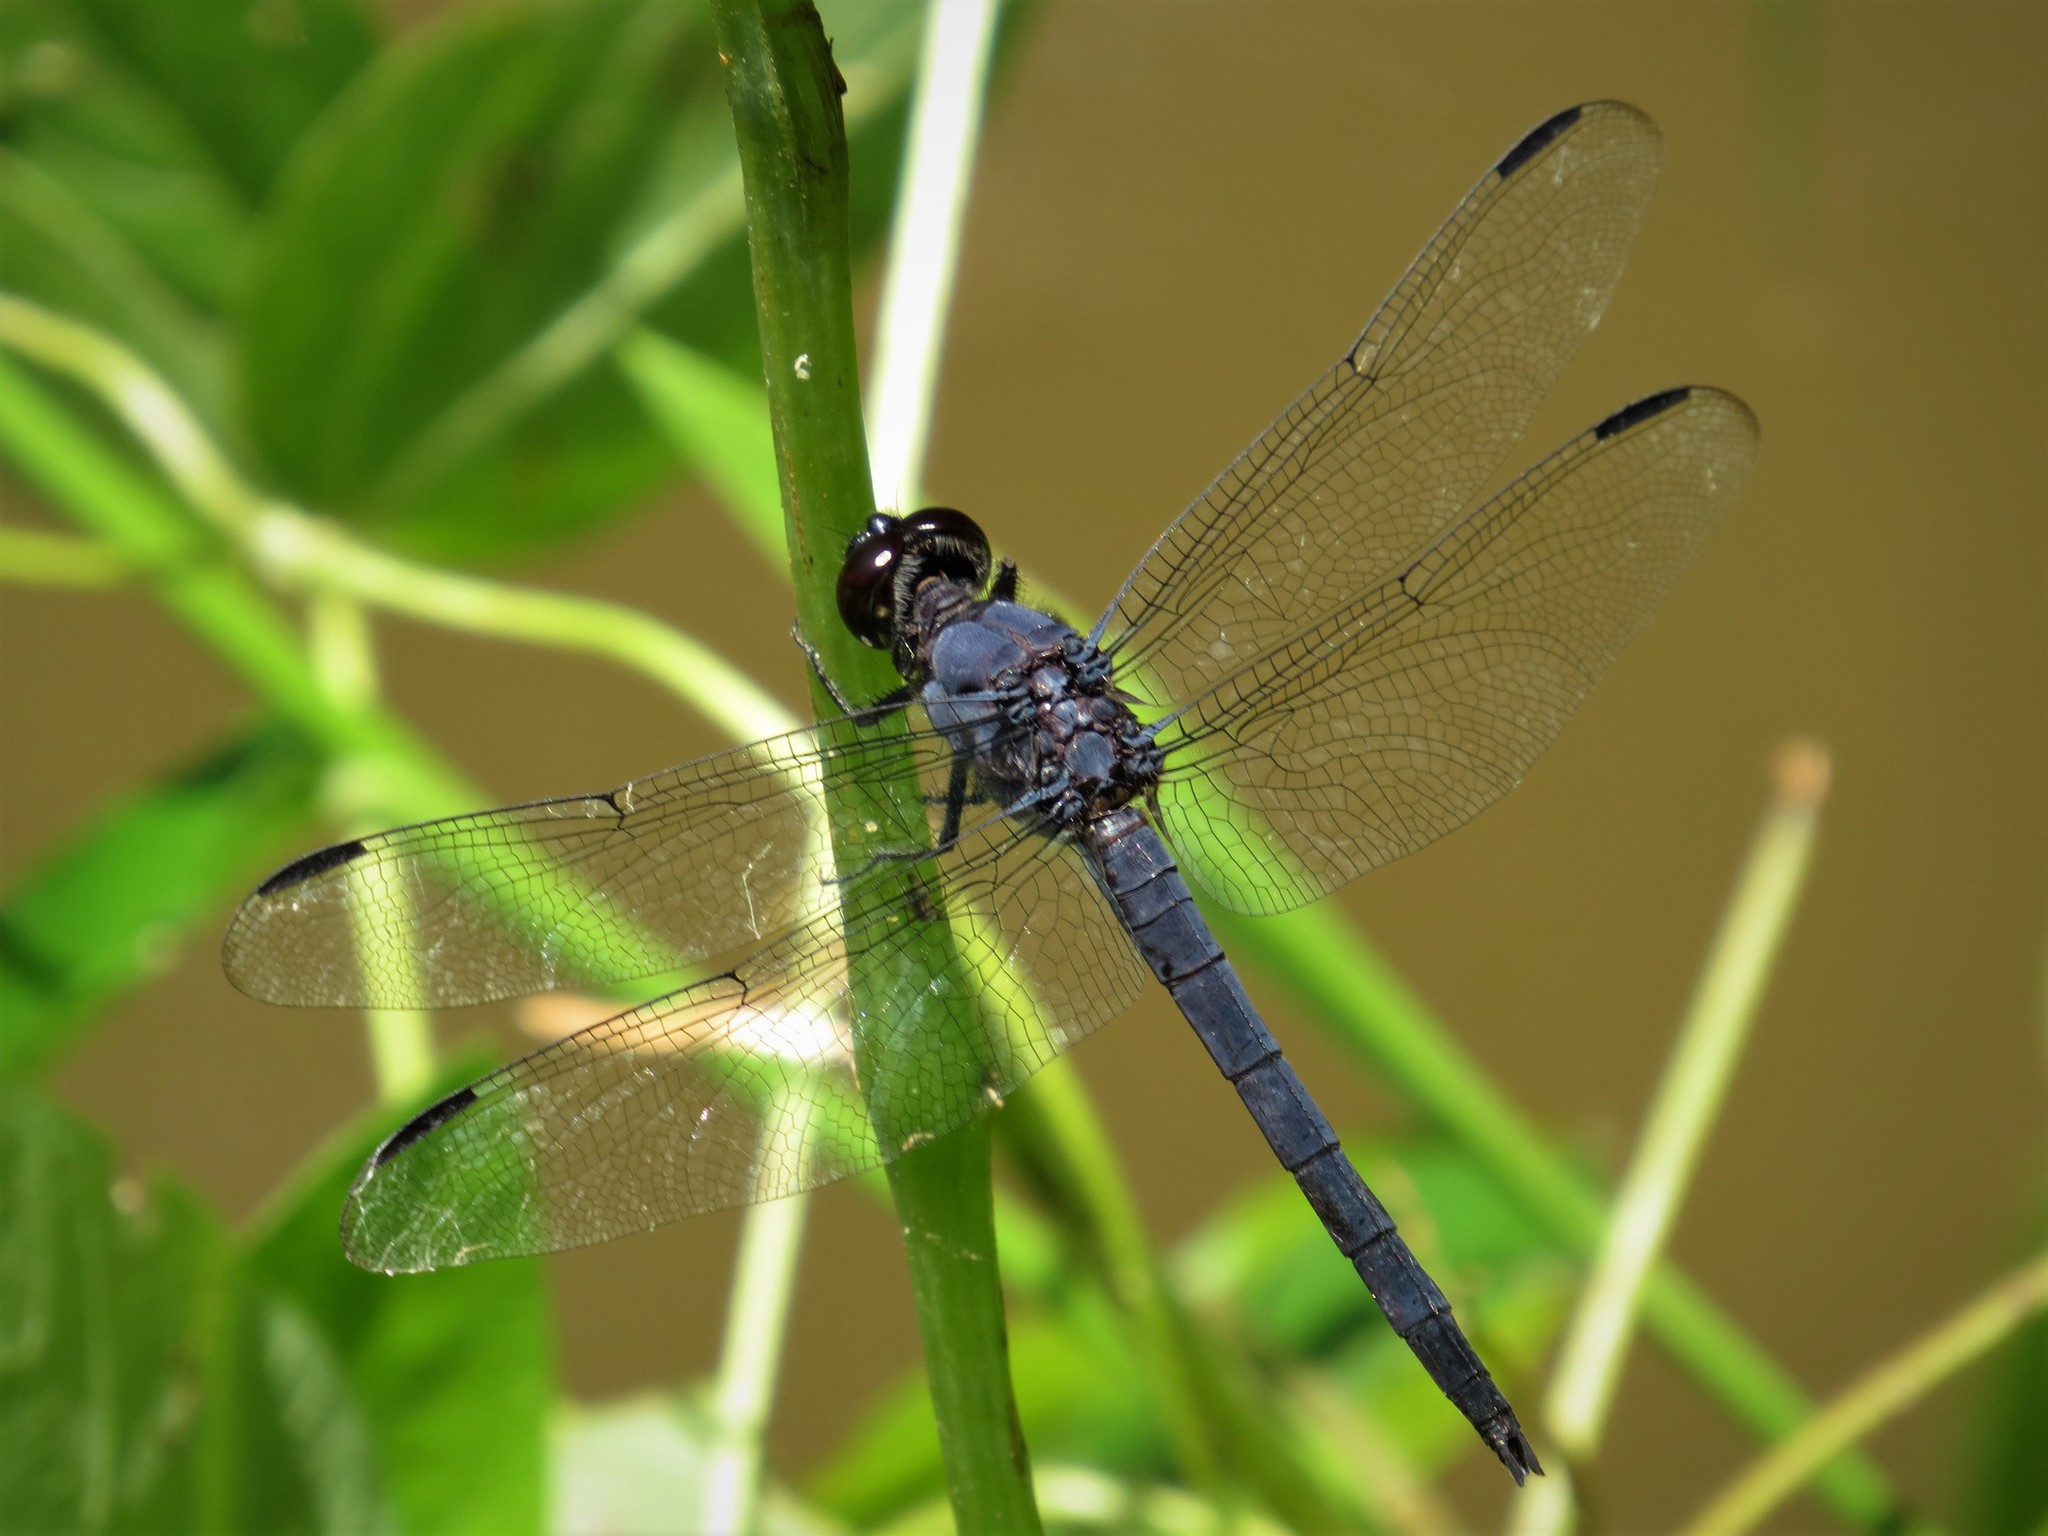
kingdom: Animalia
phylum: Arthropoda
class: Insecta
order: Odonata
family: Libellulidae
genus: Libellula
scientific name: Libellula incesta
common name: Slaty skimmer
